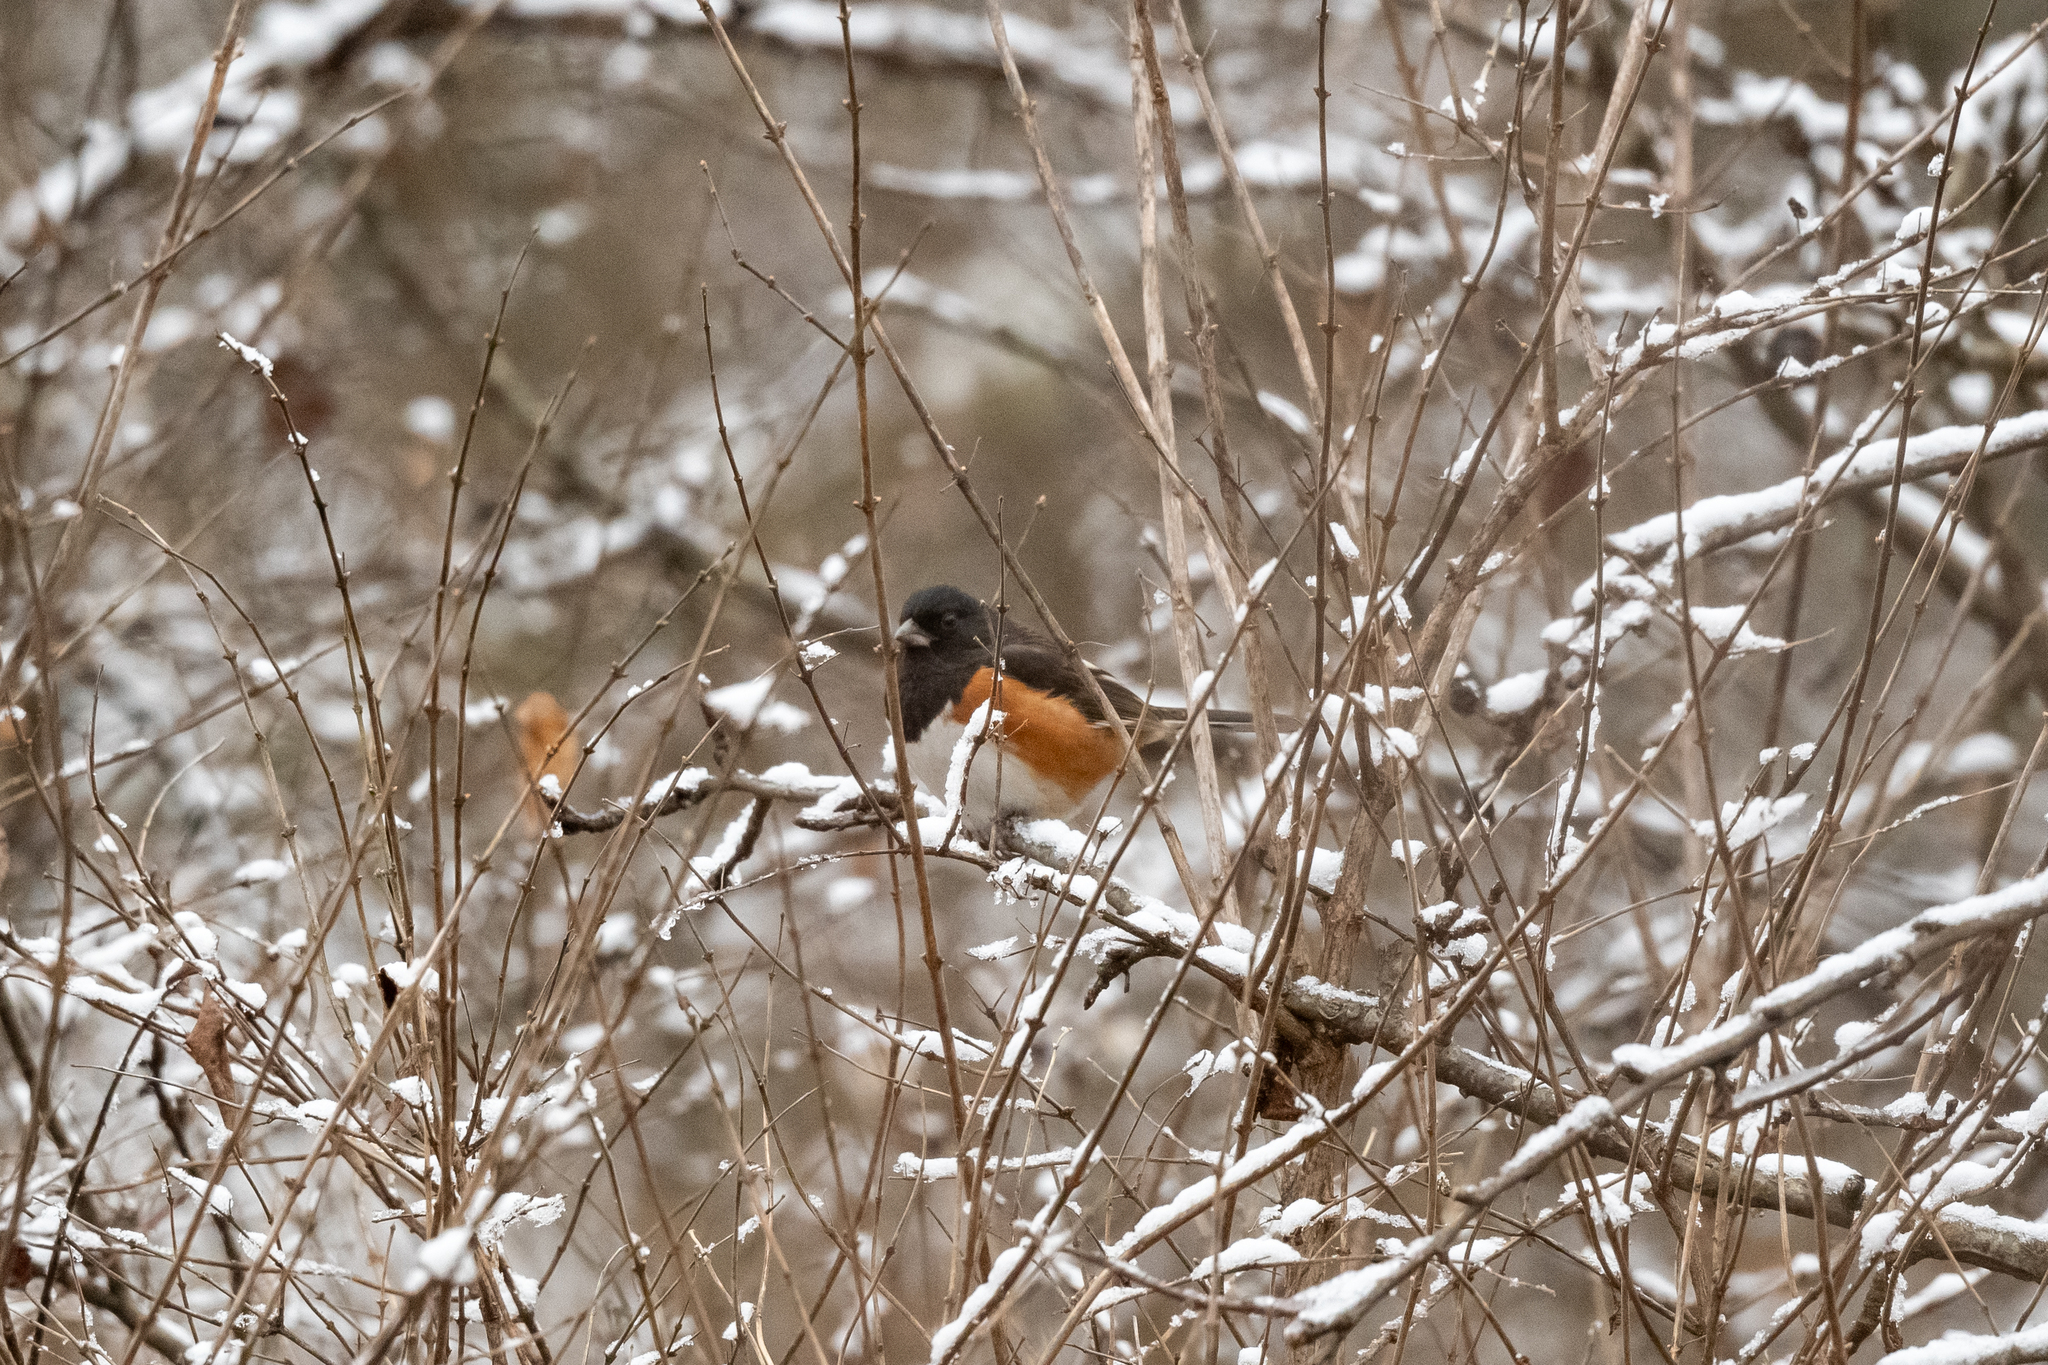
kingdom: Animalia
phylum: Chordata
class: Aves
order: Passeriformes
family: Passerellidae
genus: Pipilo
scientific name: Pipilo erythrophthalmus
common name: Eastern towhee
